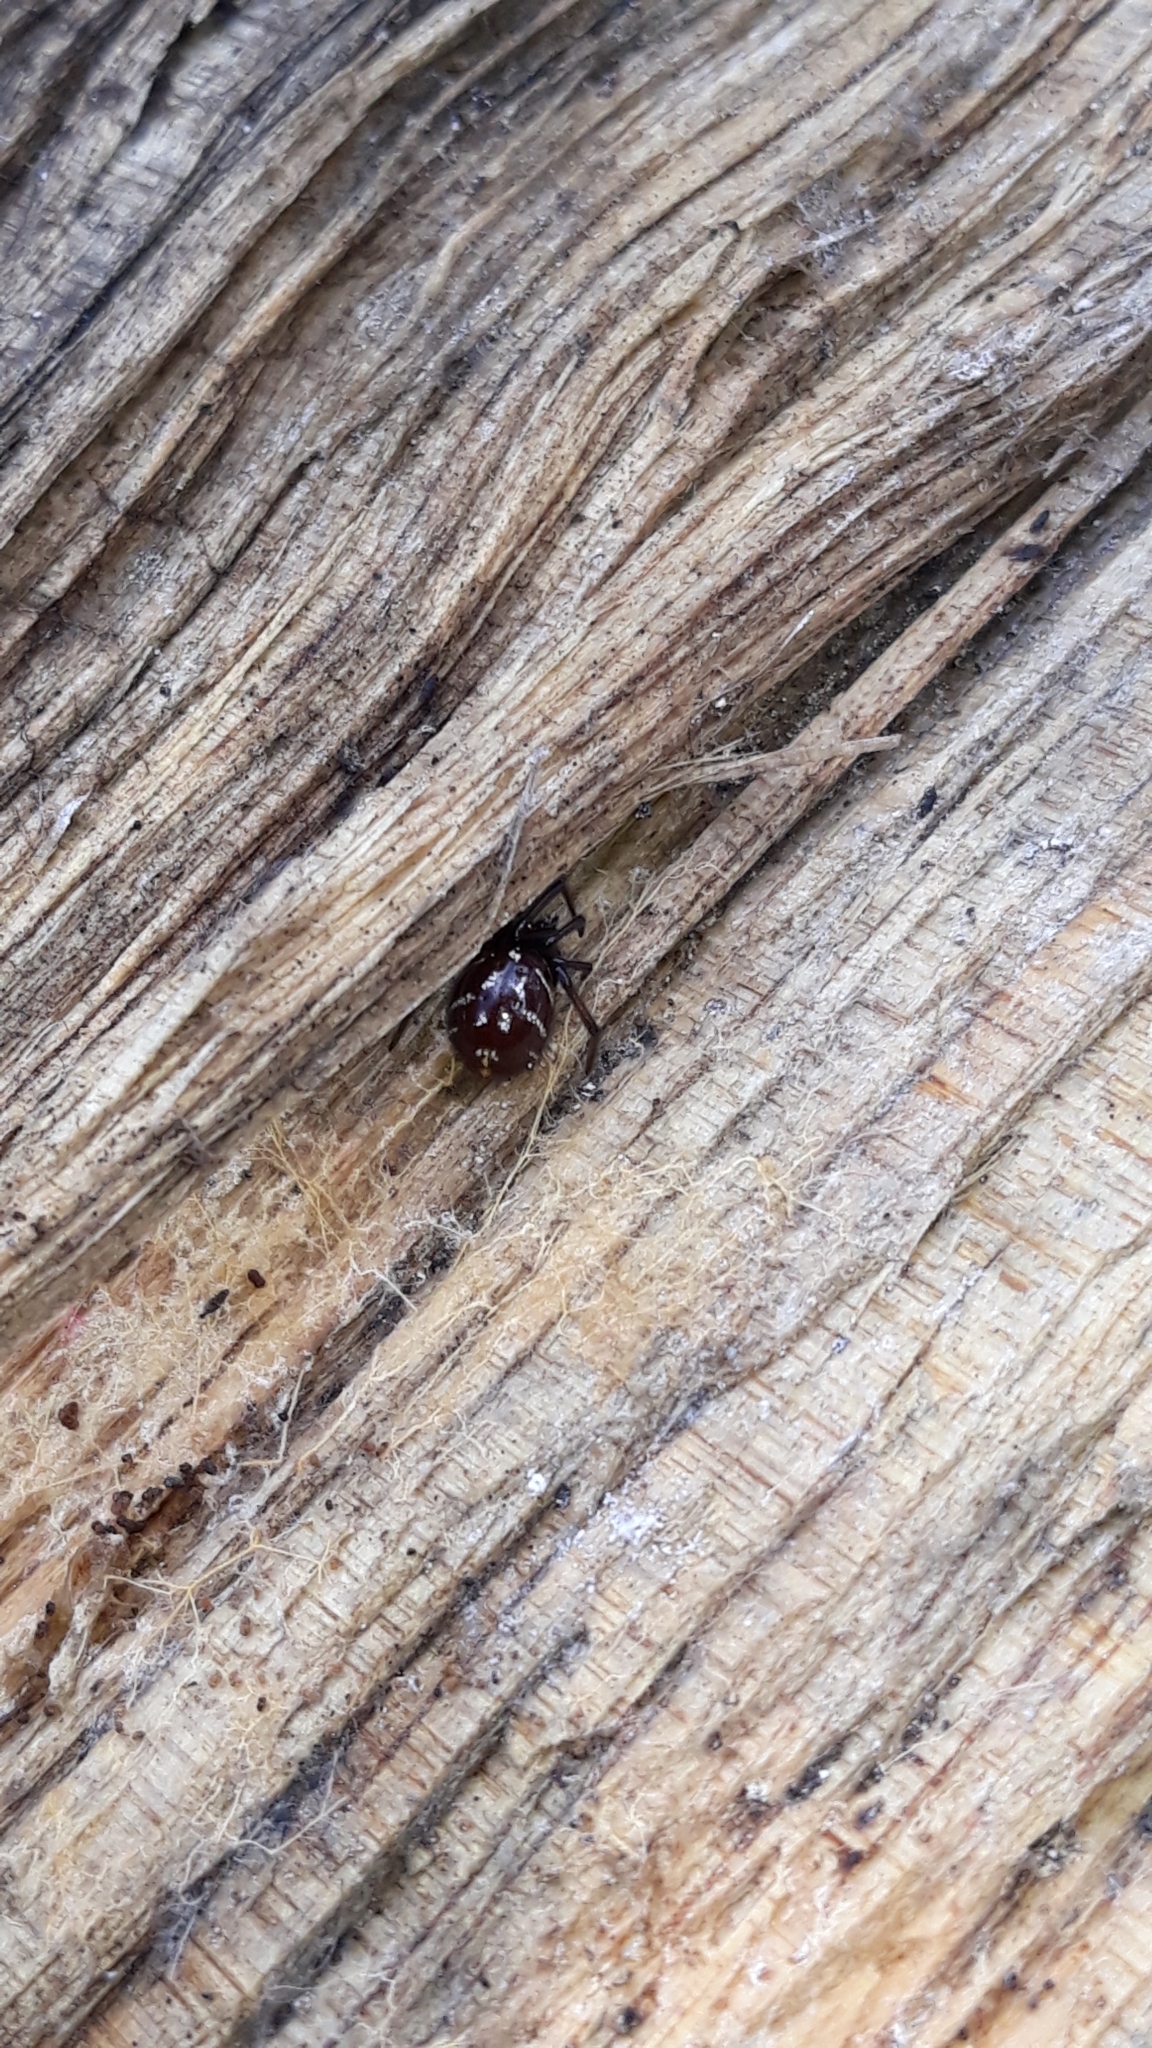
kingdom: Animalia
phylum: Arthropoda
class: Arachnida
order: Araneae
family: Theridiidae
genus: Steatoda
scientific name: Steatoda capensis
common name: Cobweb weaver
